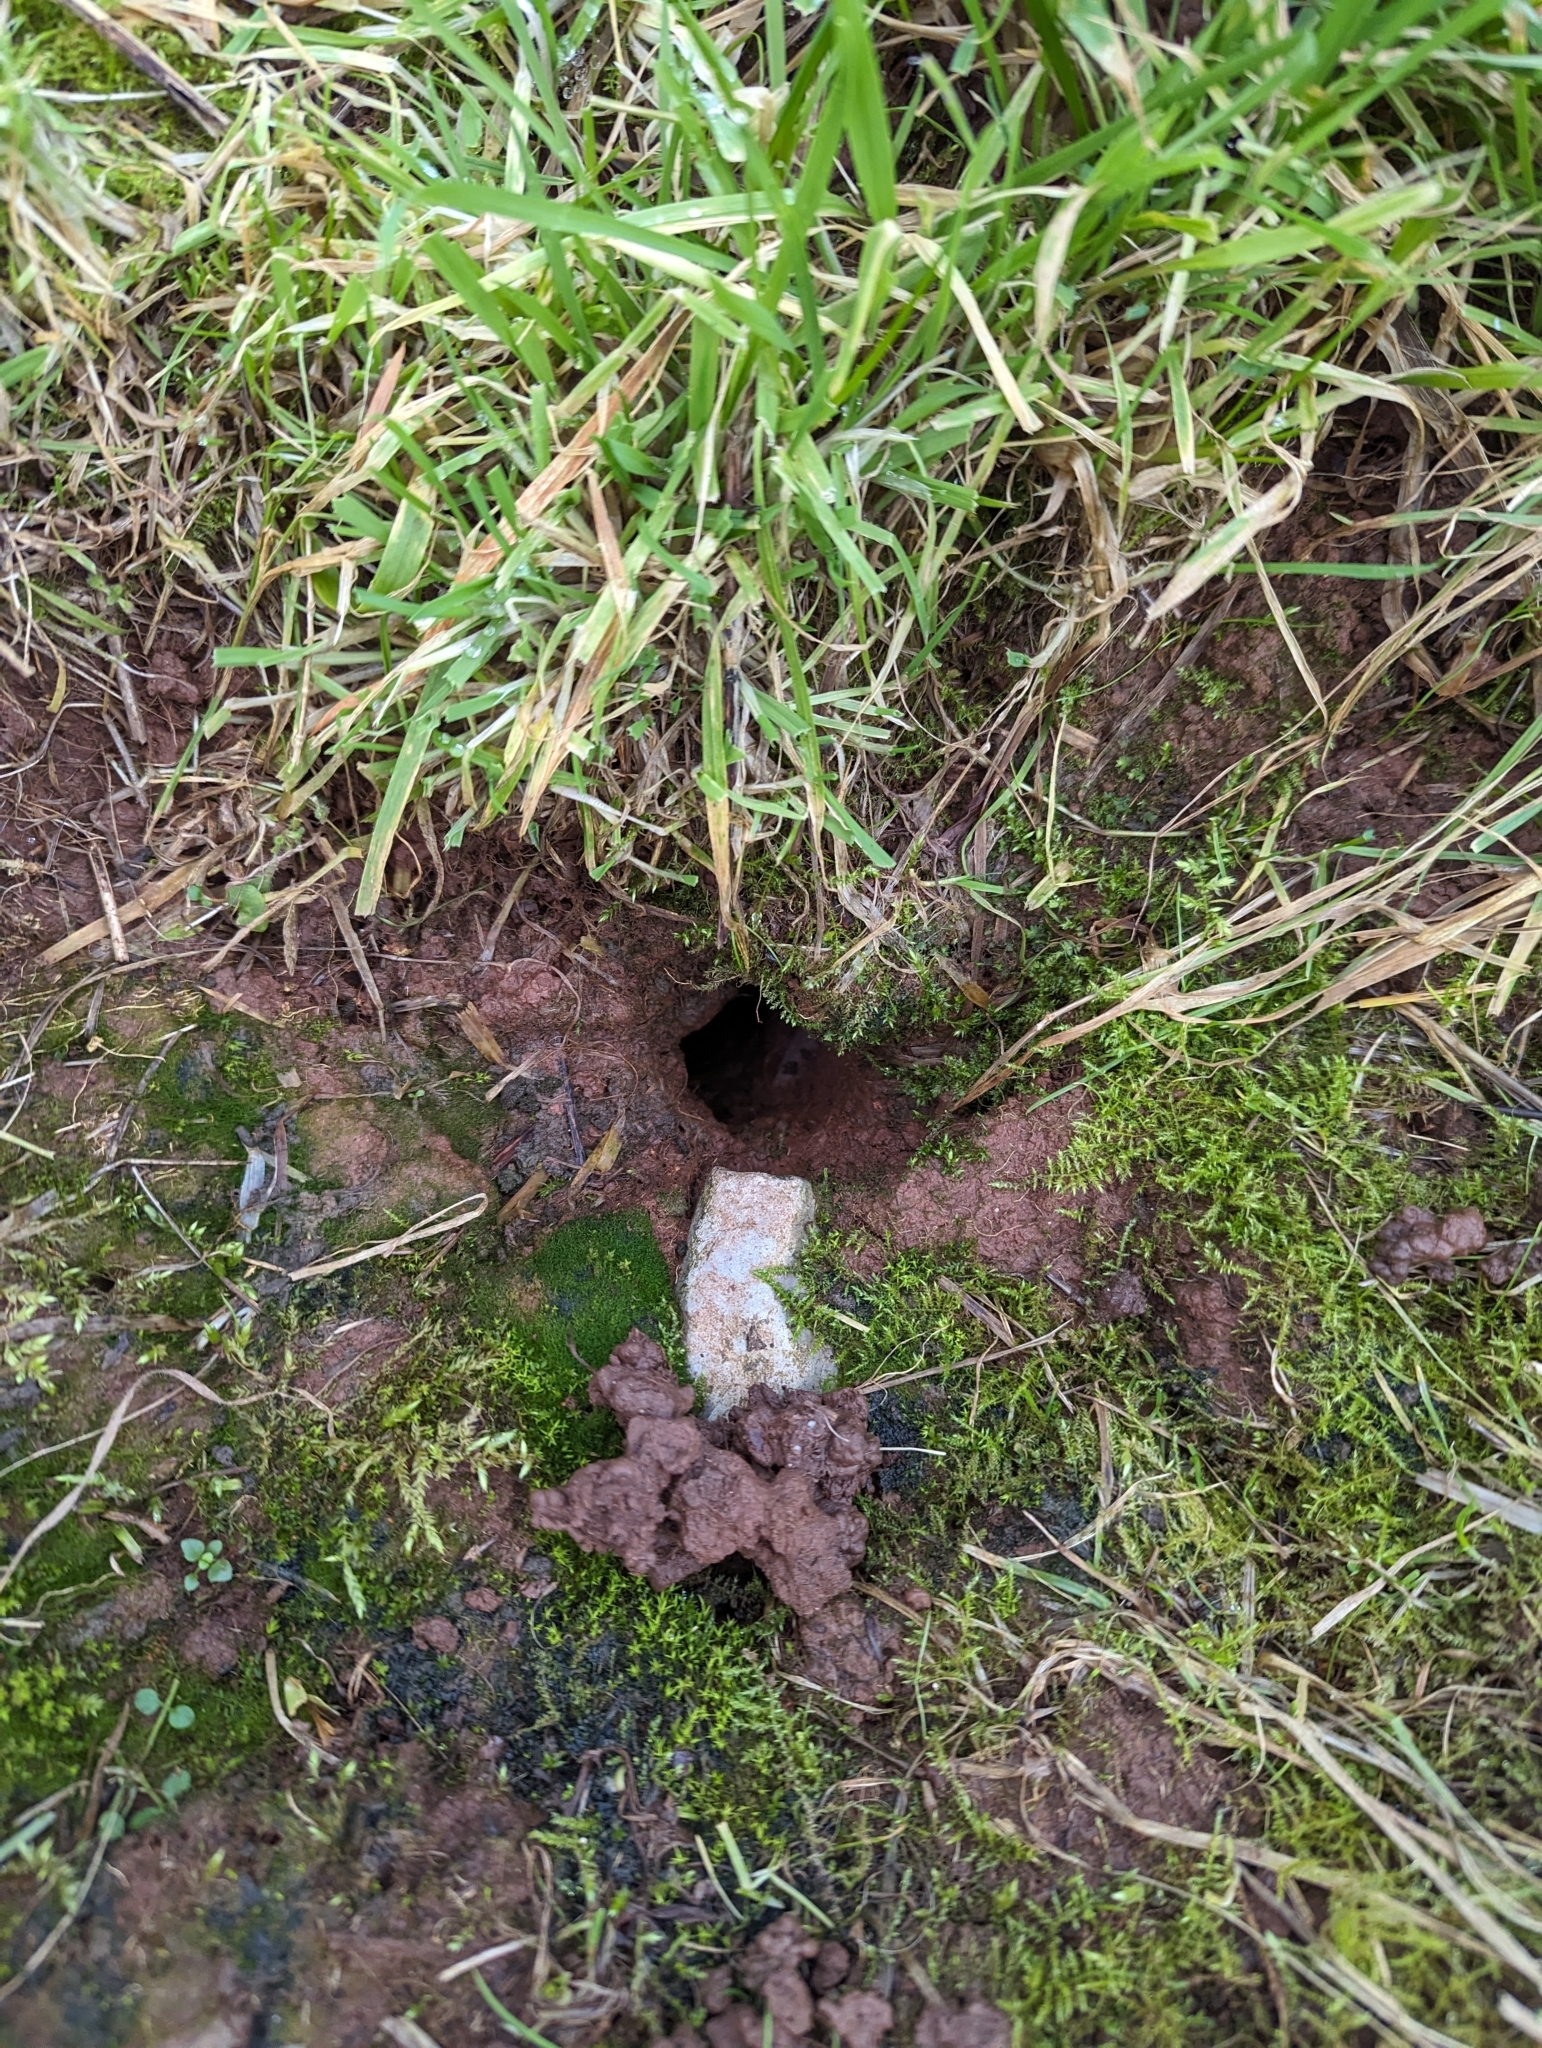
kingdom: Animalia
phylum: Chordata
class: Mammalia
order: Rodentia
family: Cricetidae
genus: Microtus
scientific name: Microtus agrestis
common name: Field vole
